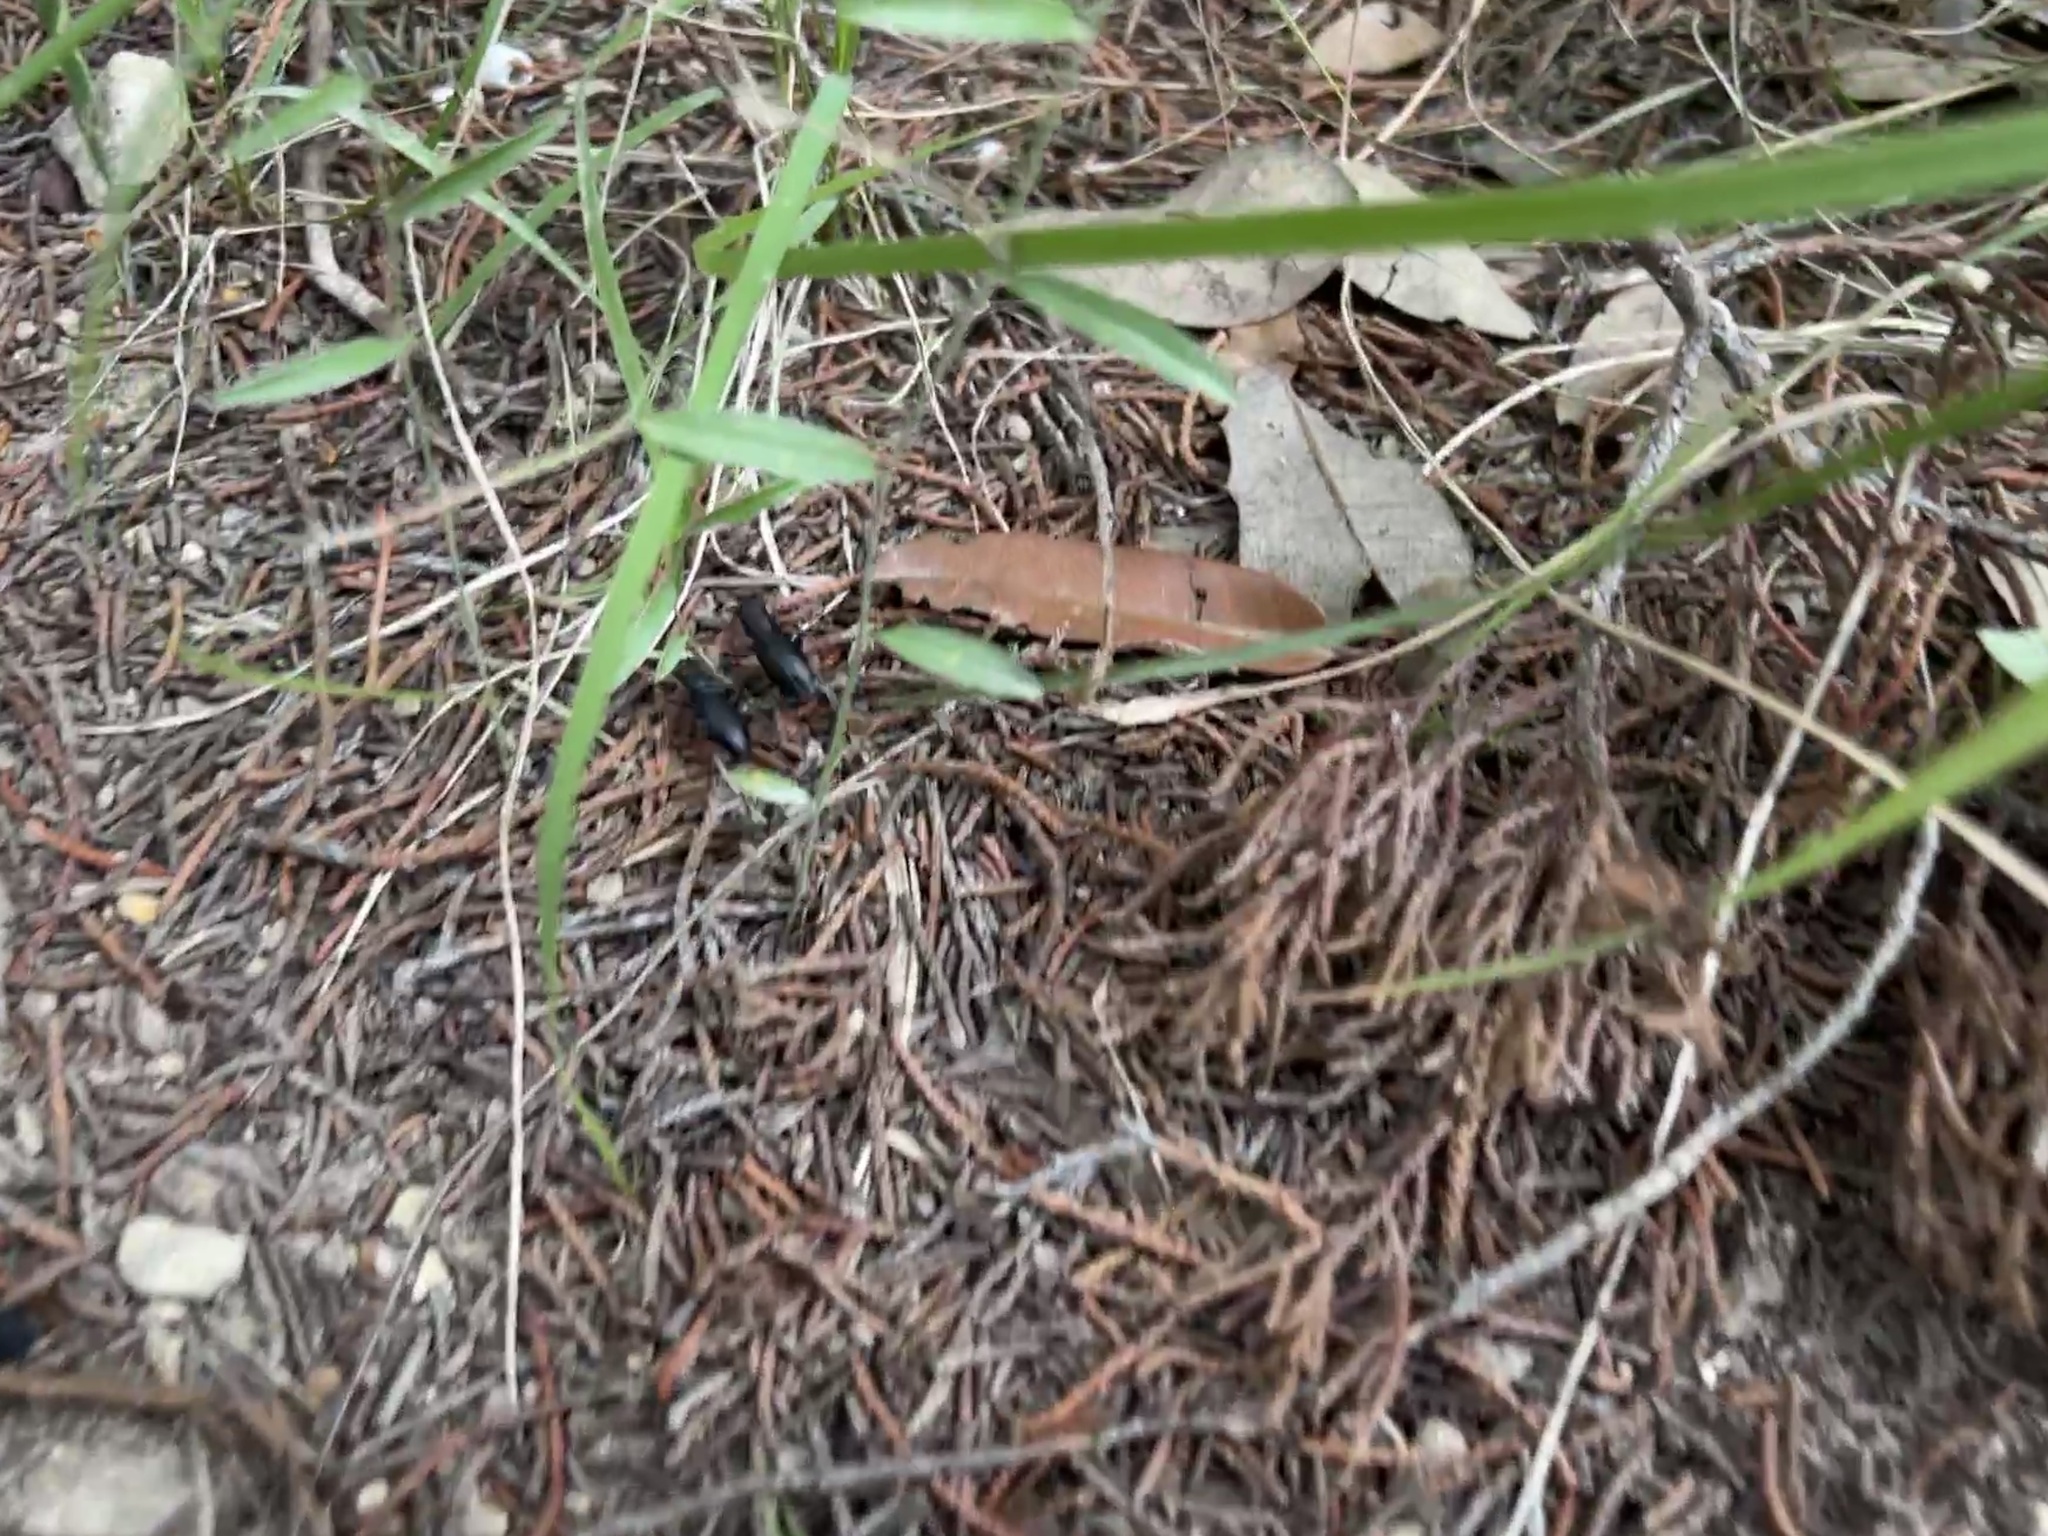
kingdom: Animalia
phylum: Arthropoda
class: Insecta
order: Coleoptera
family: Carabidae
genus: Dromochorus
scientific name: Dromochorus belfragei
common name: Loamy-ground dromo tiger beetle
